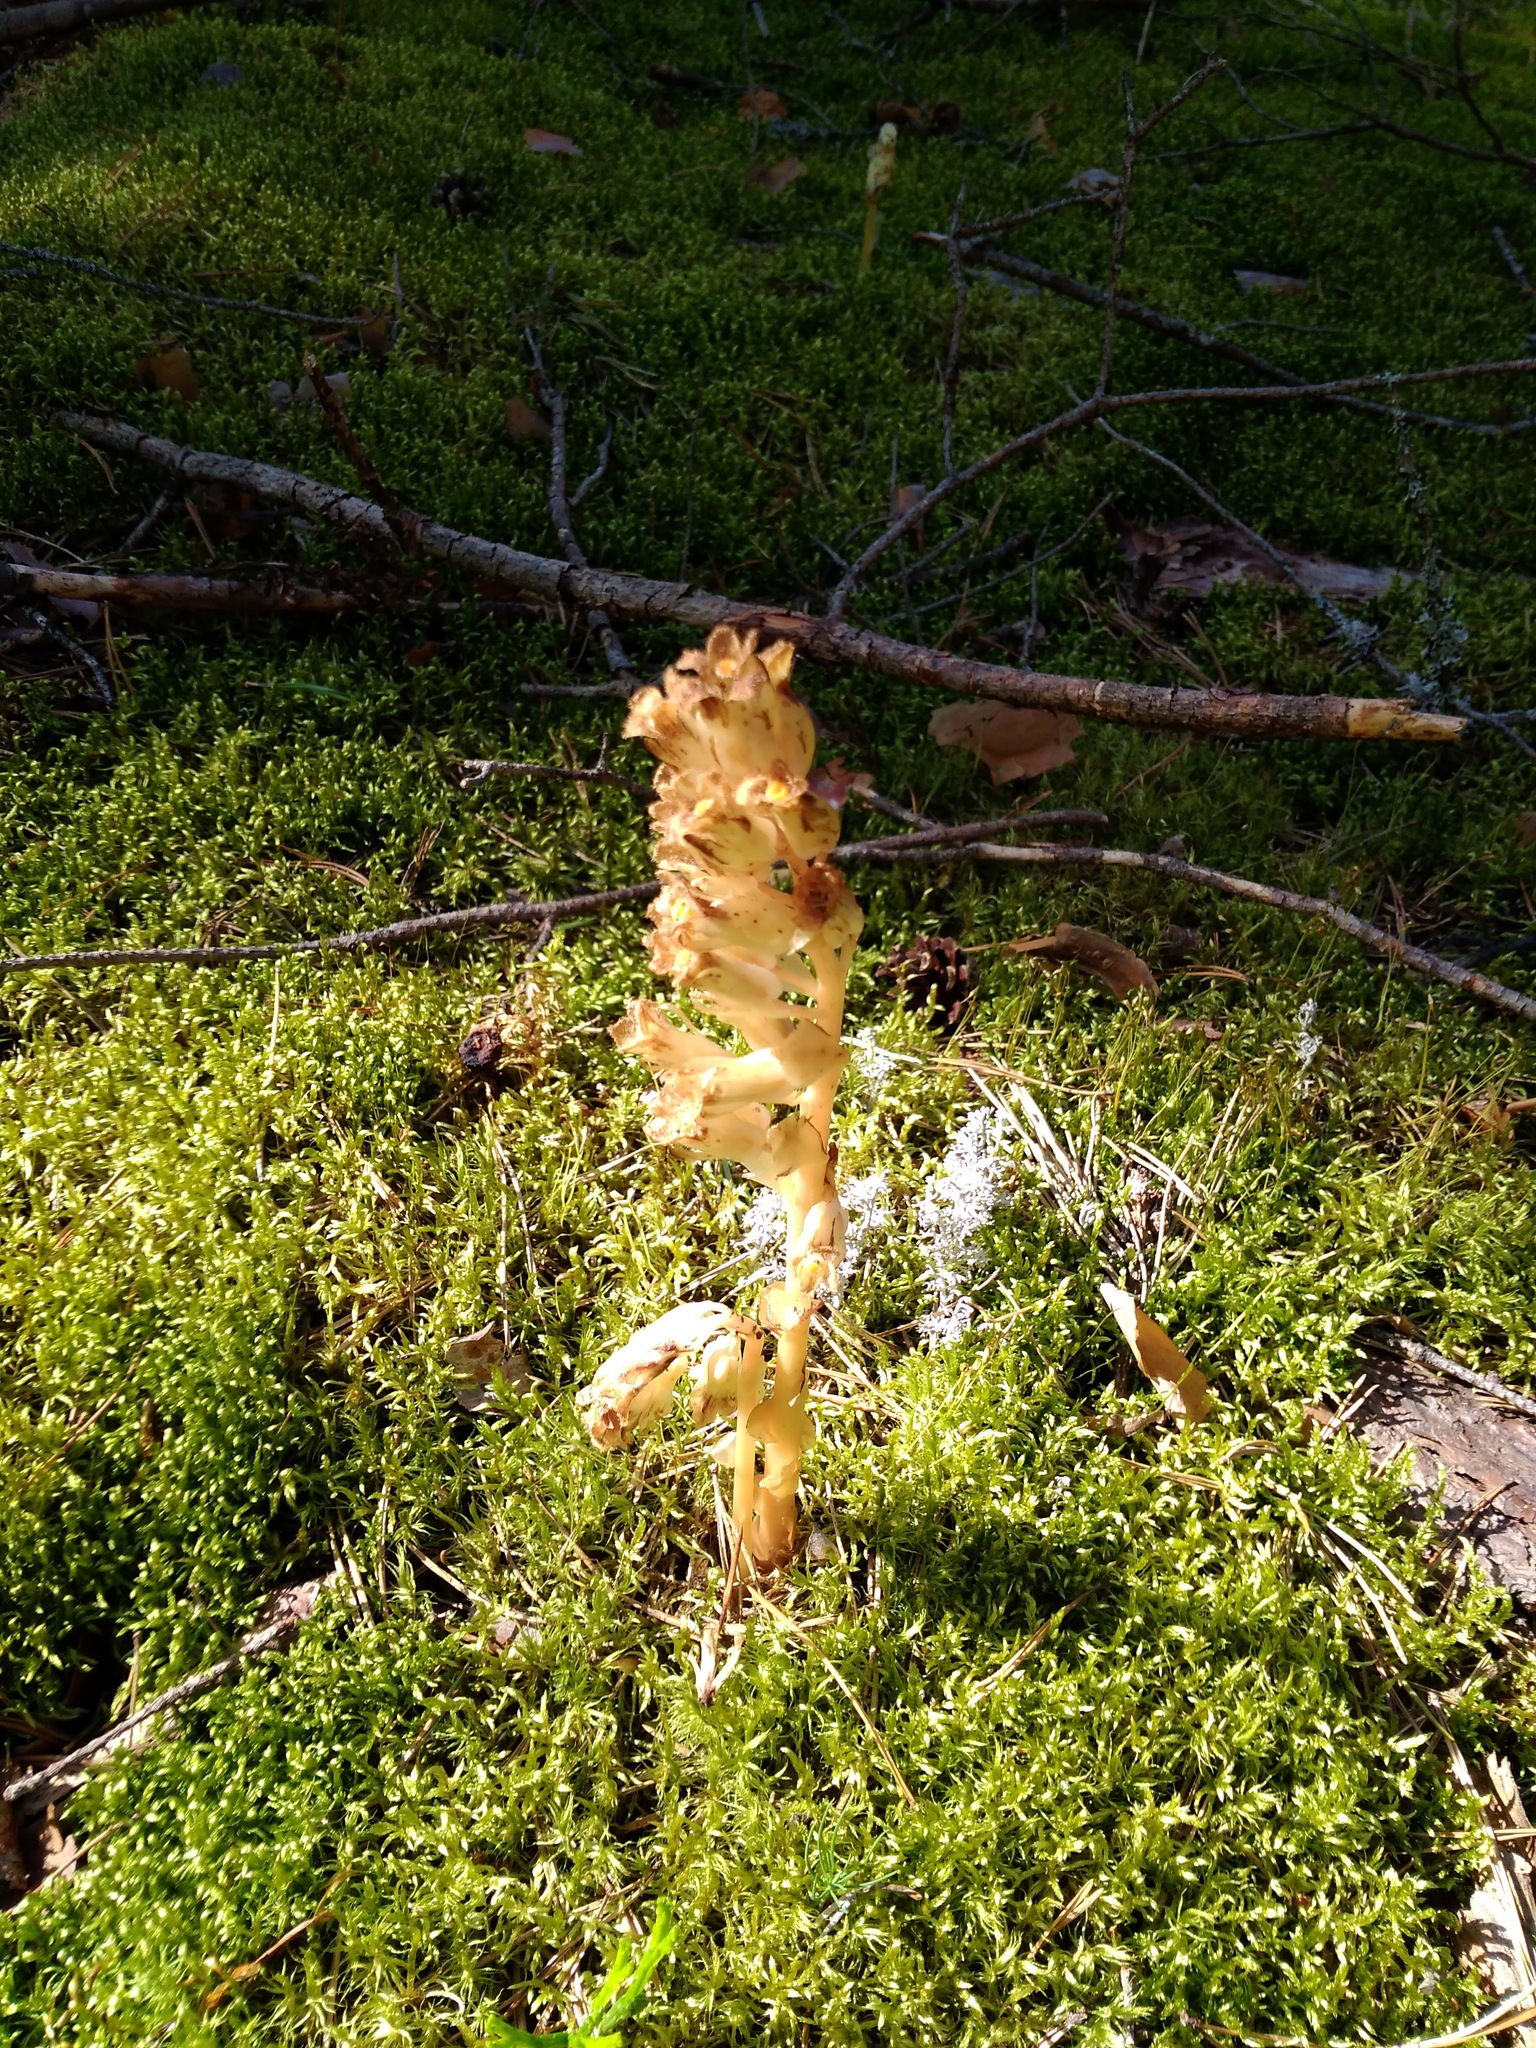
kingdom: Plantae
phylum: Tracheophyta
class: Magnoliopsida
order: Ericales
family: Ericaceae
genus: Hypopitys
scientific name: Hypopitys monotropa
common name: Yellow bird's-nest
